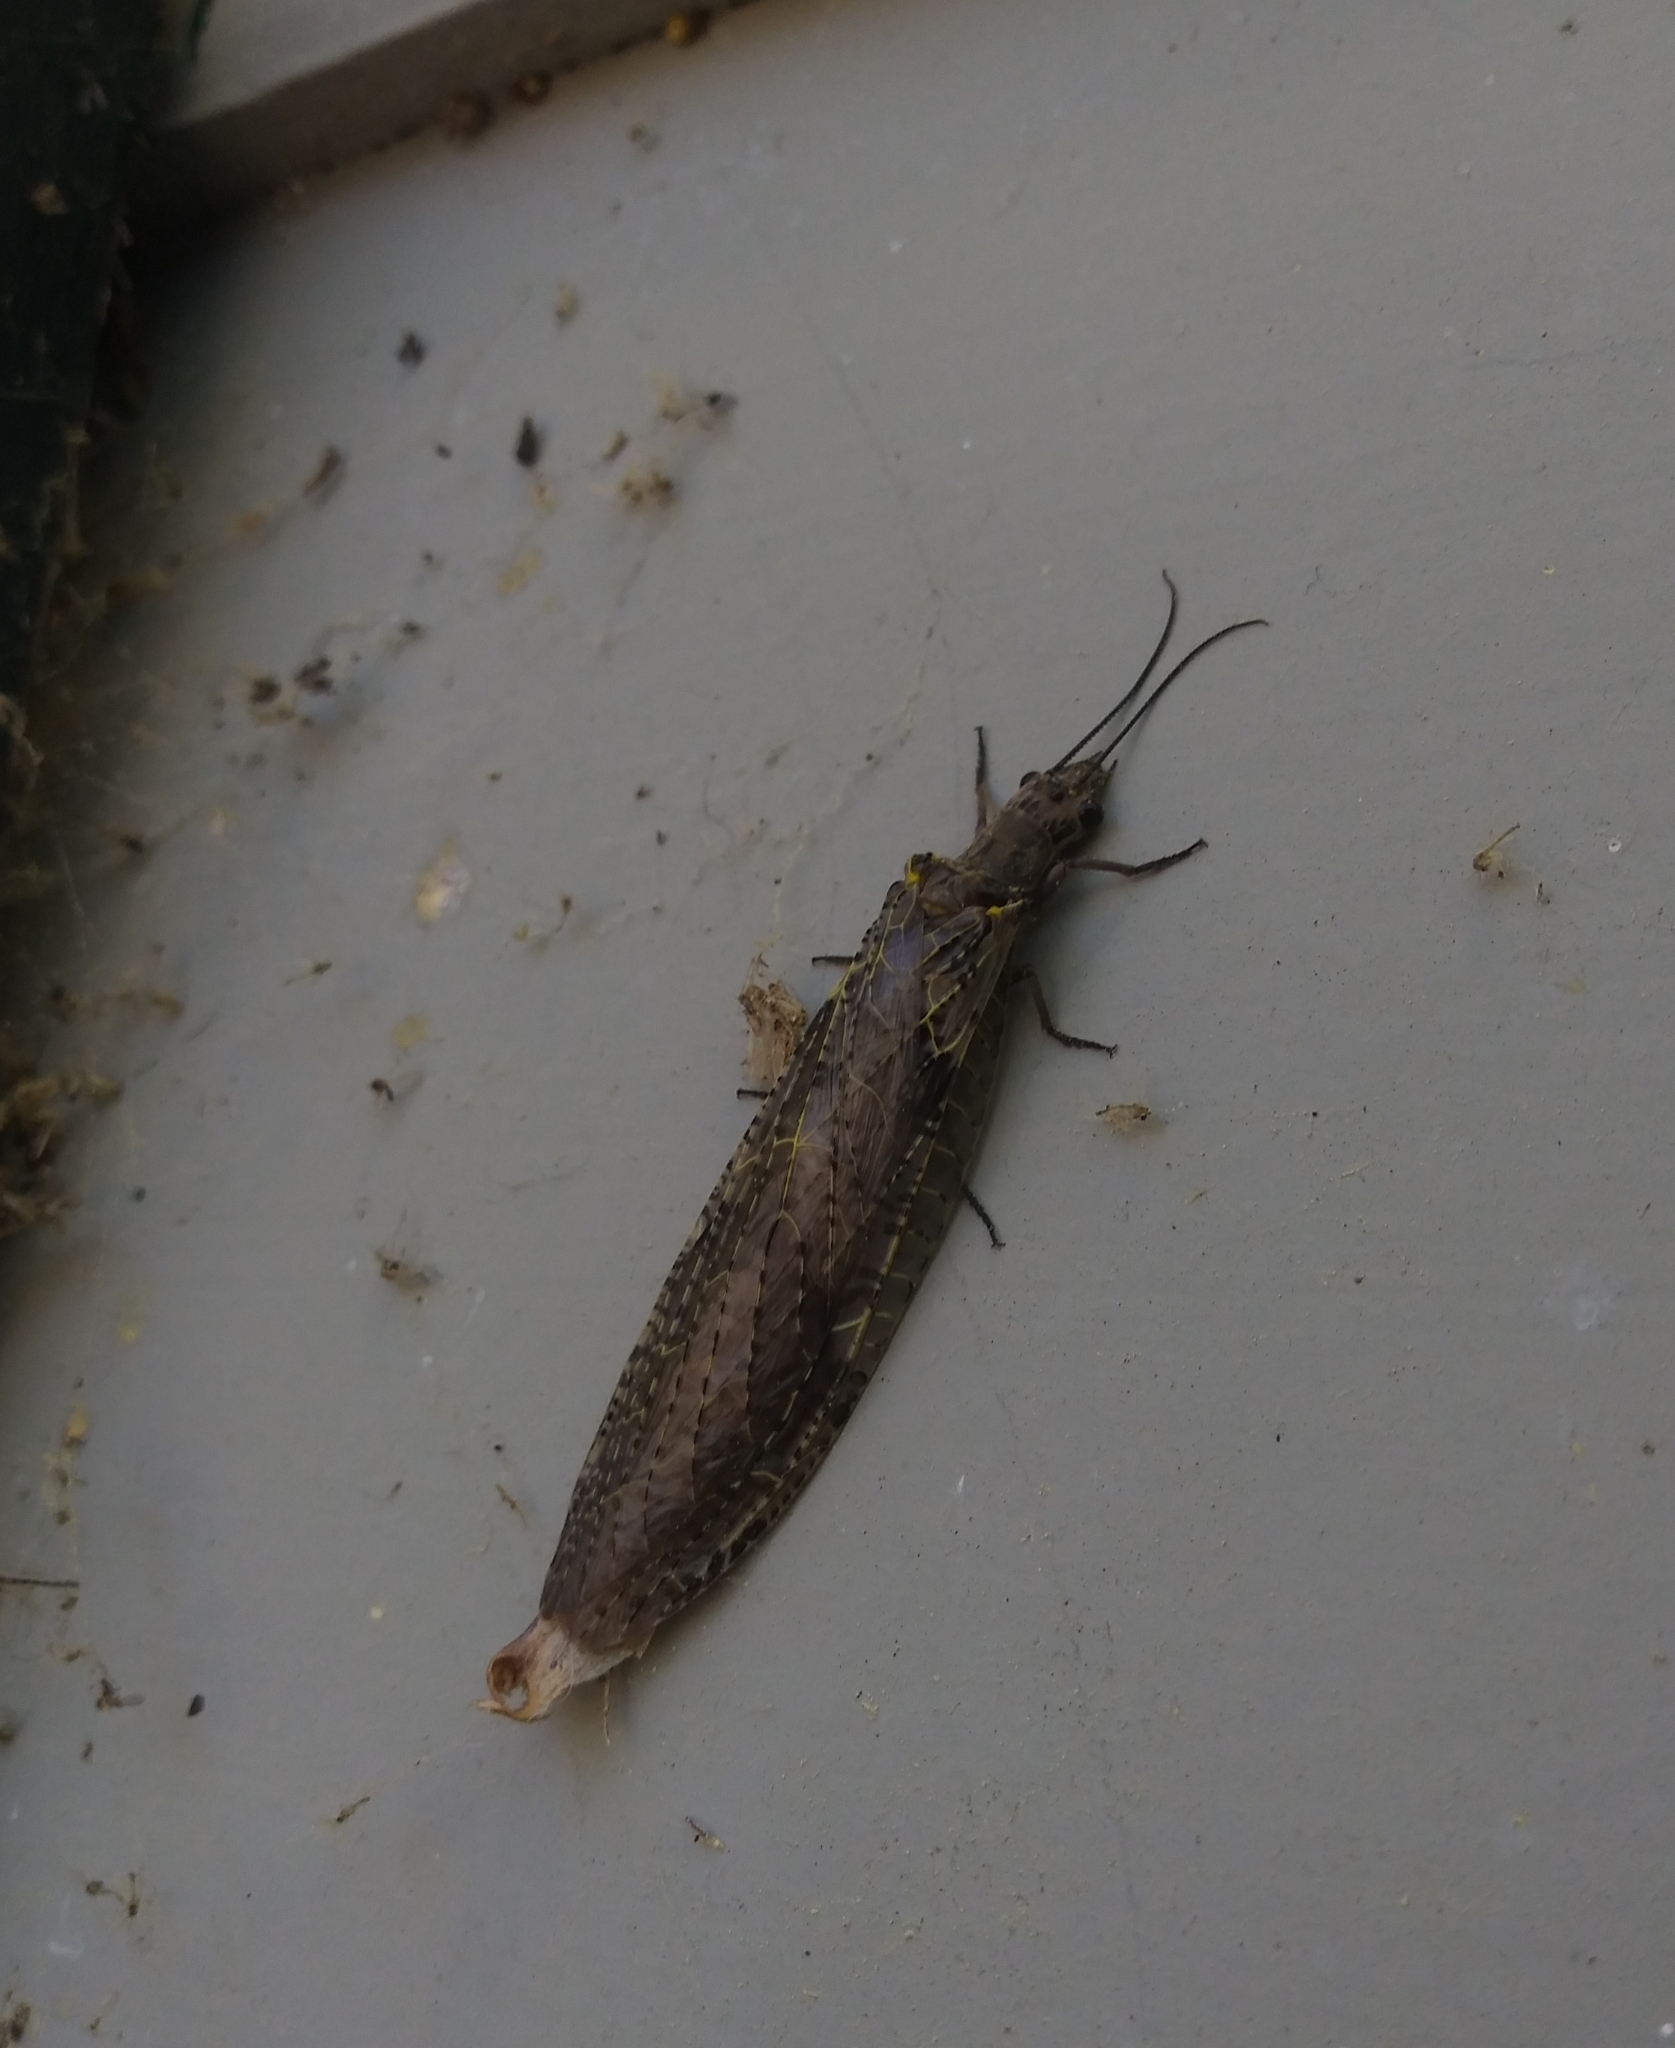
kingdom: Animalia
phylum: Arthropoda
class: Insecta
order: Megaloptera
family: Corydalidae
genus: Chauliodes
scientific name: Chauliodes rastricornis
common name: Spring fishfly
